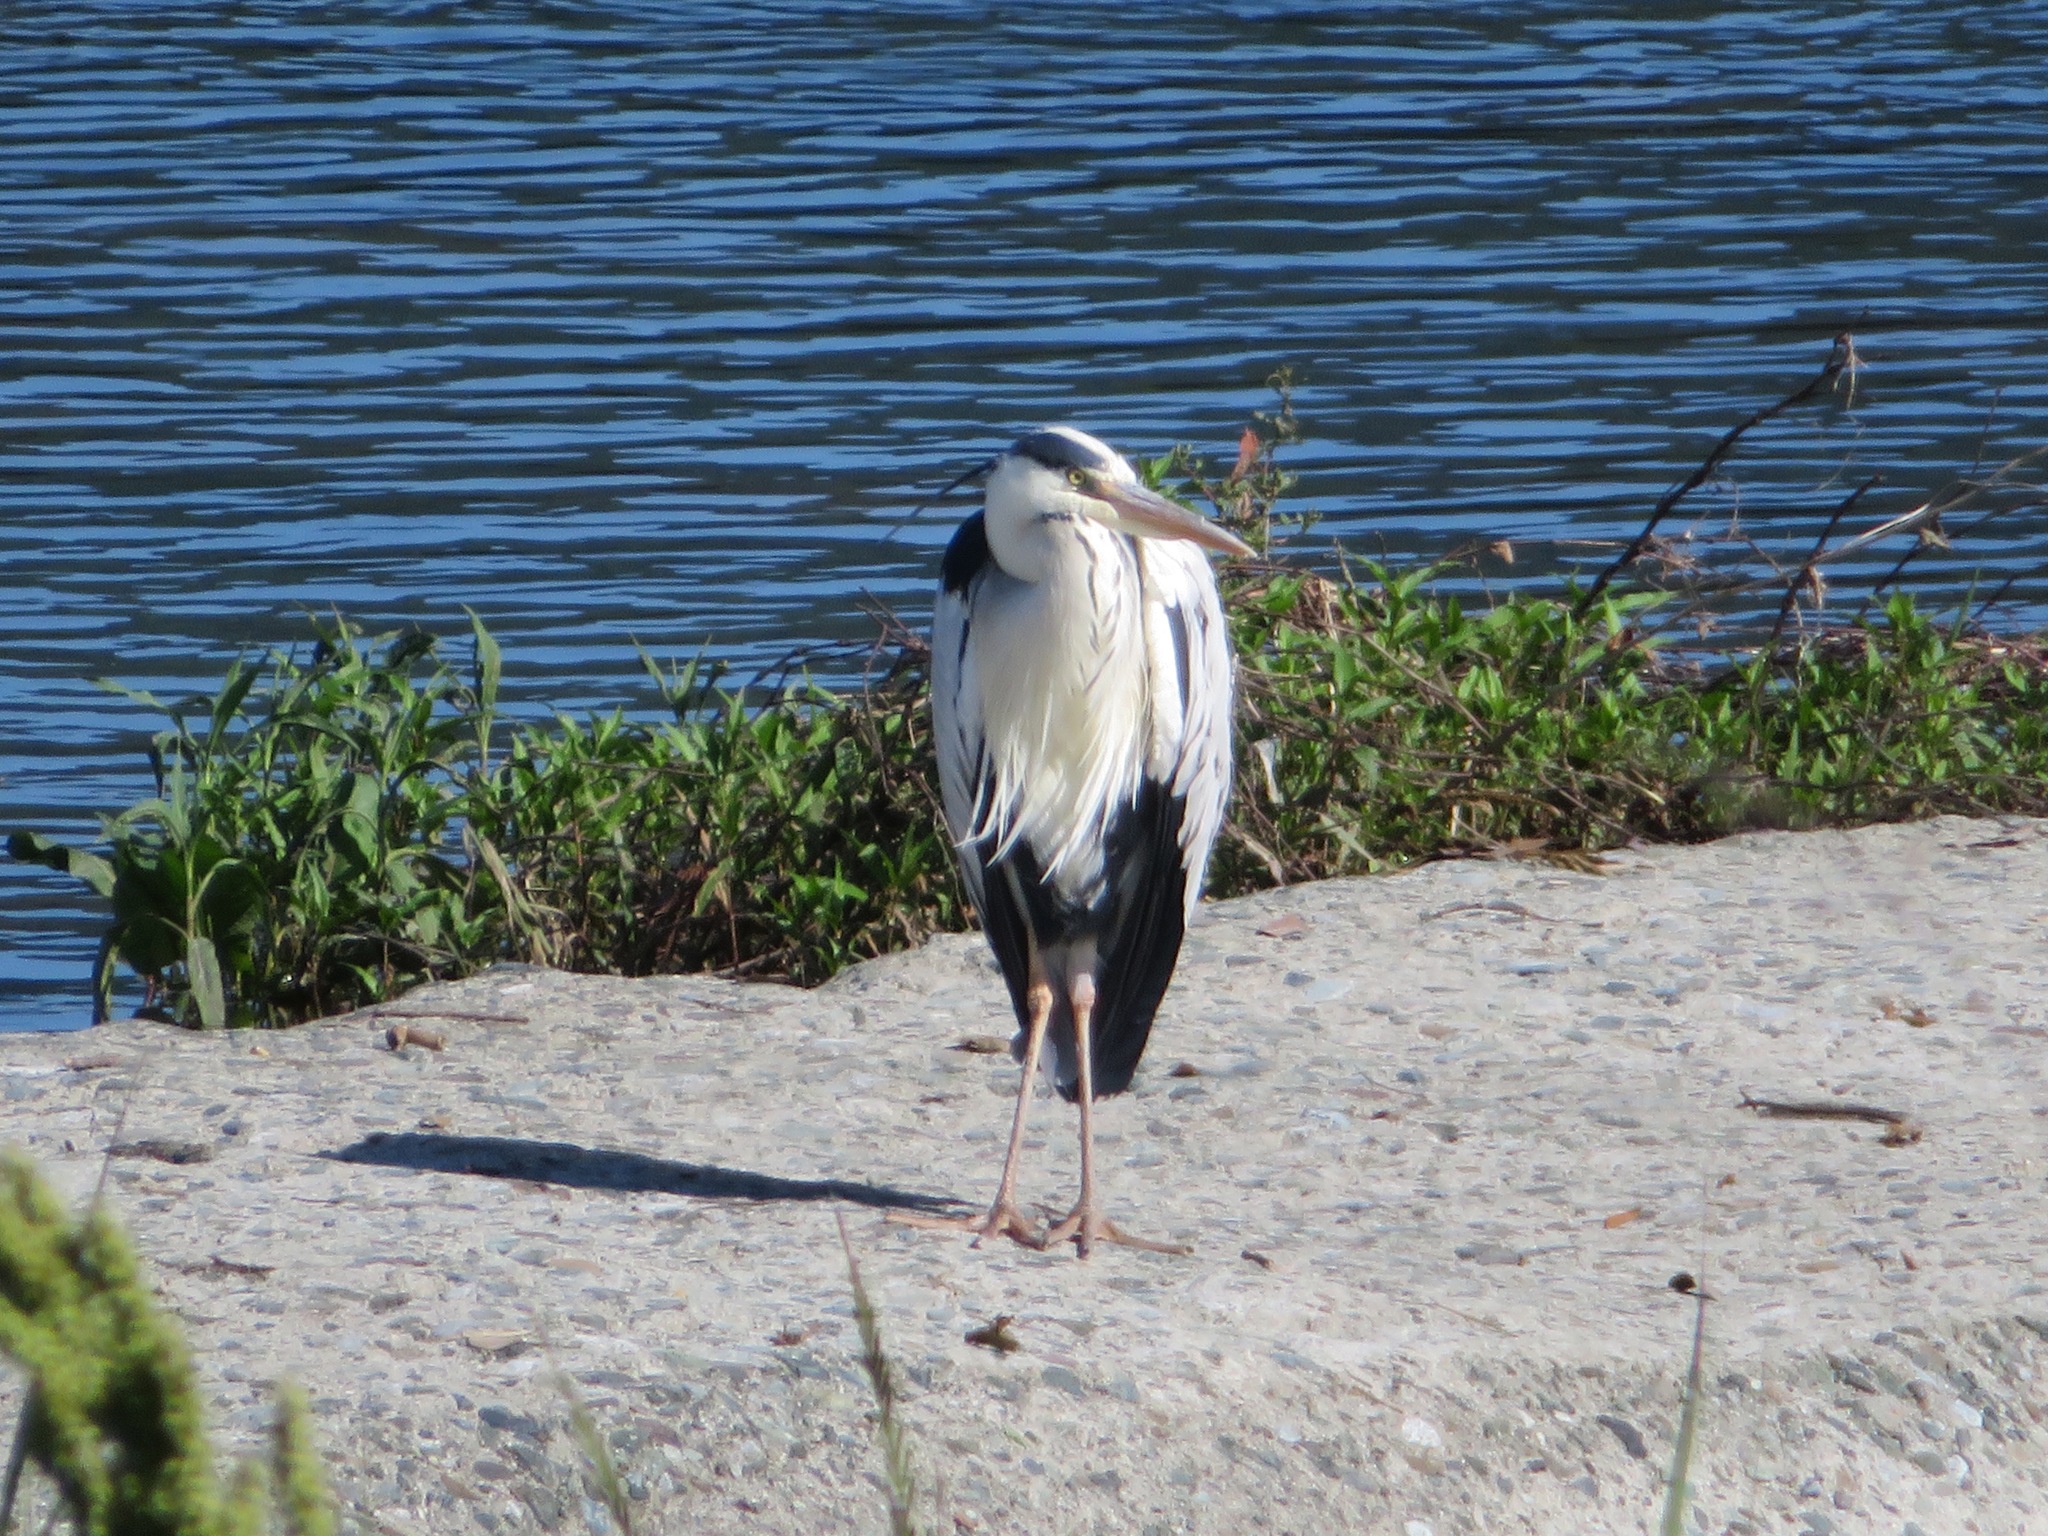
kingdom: Animalia
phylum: Chordata
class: Aves
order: Pelecaniformes
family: Ardeidae
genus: Ardea
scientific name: Ardea cinerea
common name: Grey heron
